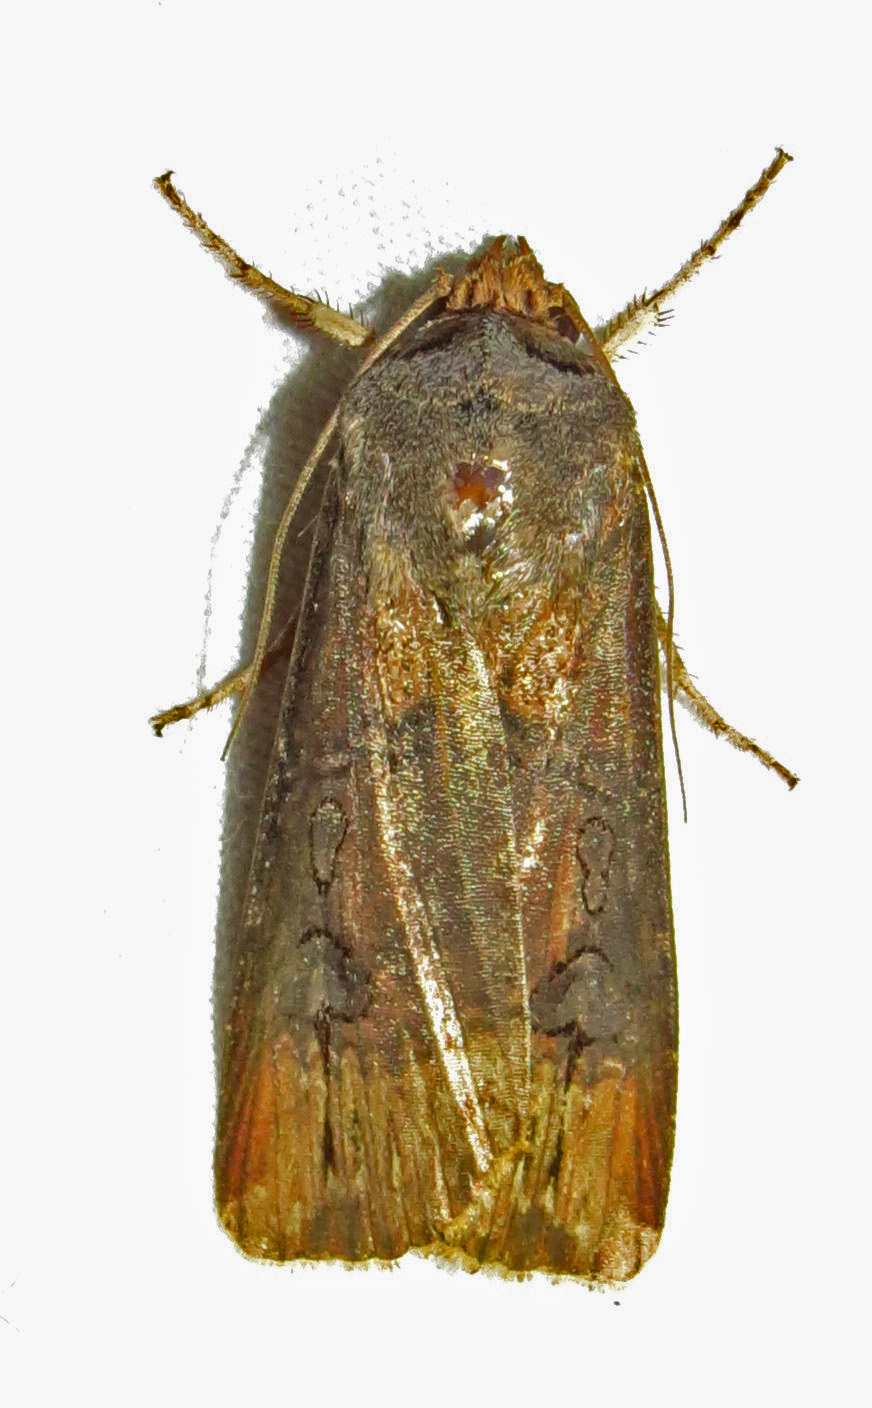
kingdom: Animalia
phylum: Arthropoda
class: Insecta
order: Lepidoptera
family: Noctuidae
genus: Agrotis
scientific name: Agrotis ipsilon
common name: Dark sword-grass
